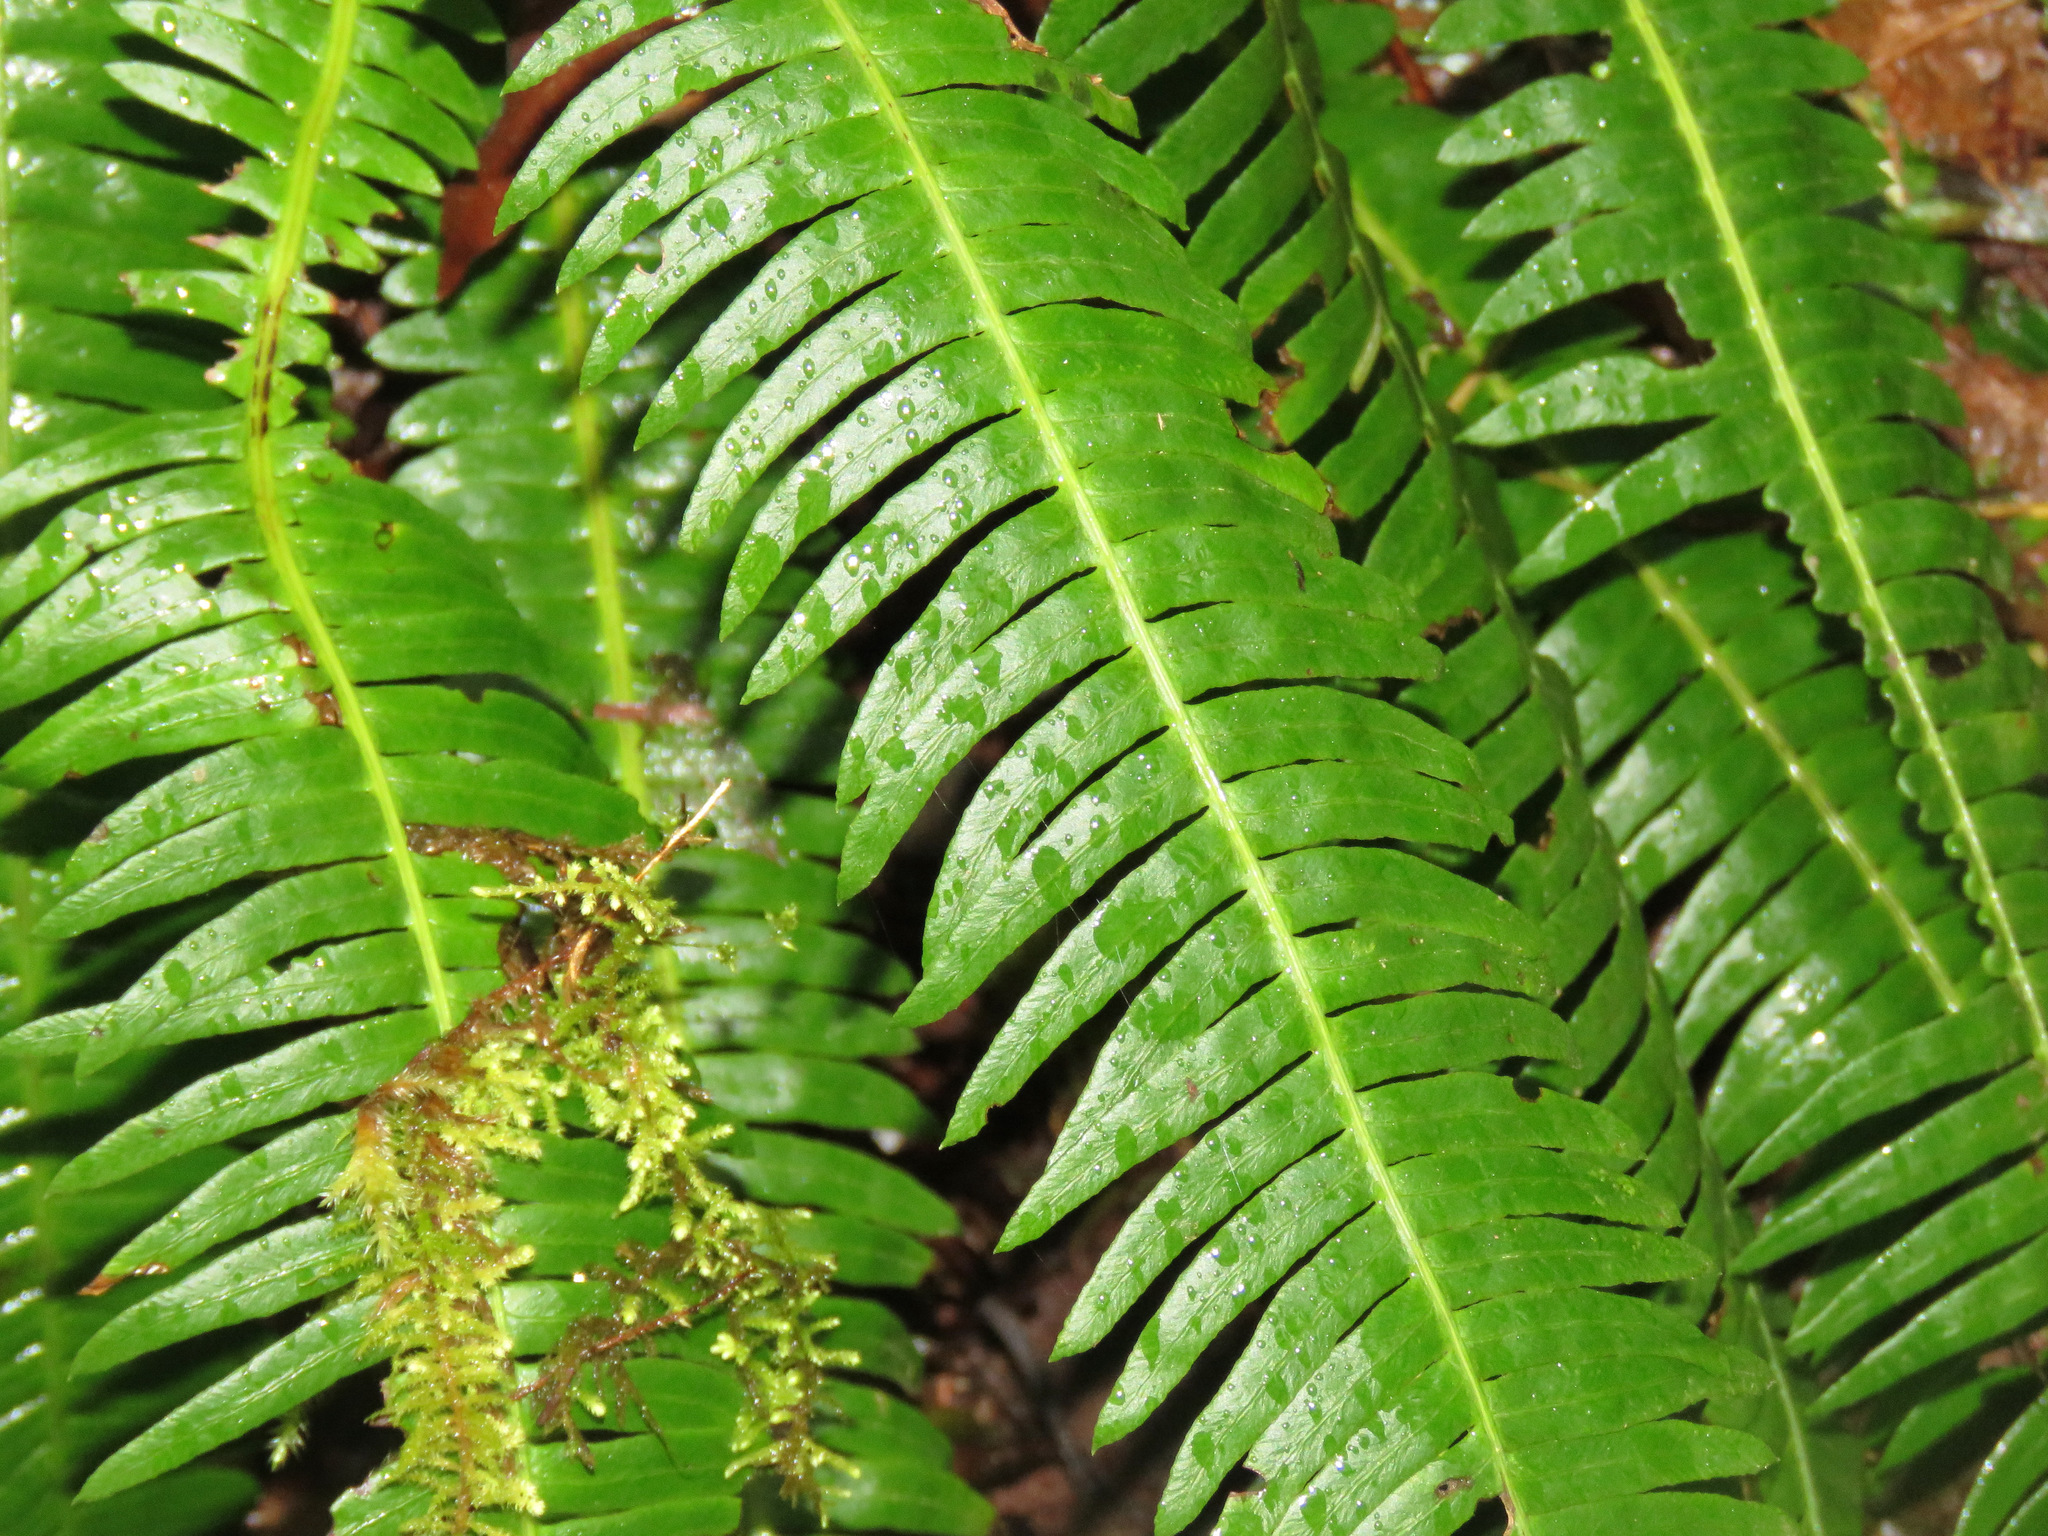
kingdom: Plantae
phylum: Tracheophyta
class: Polypodiopsida
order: Polypodiales
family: Blechnaceae
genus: Struthiopteris
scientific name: Struthiopteris spicant
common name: Deer fern
